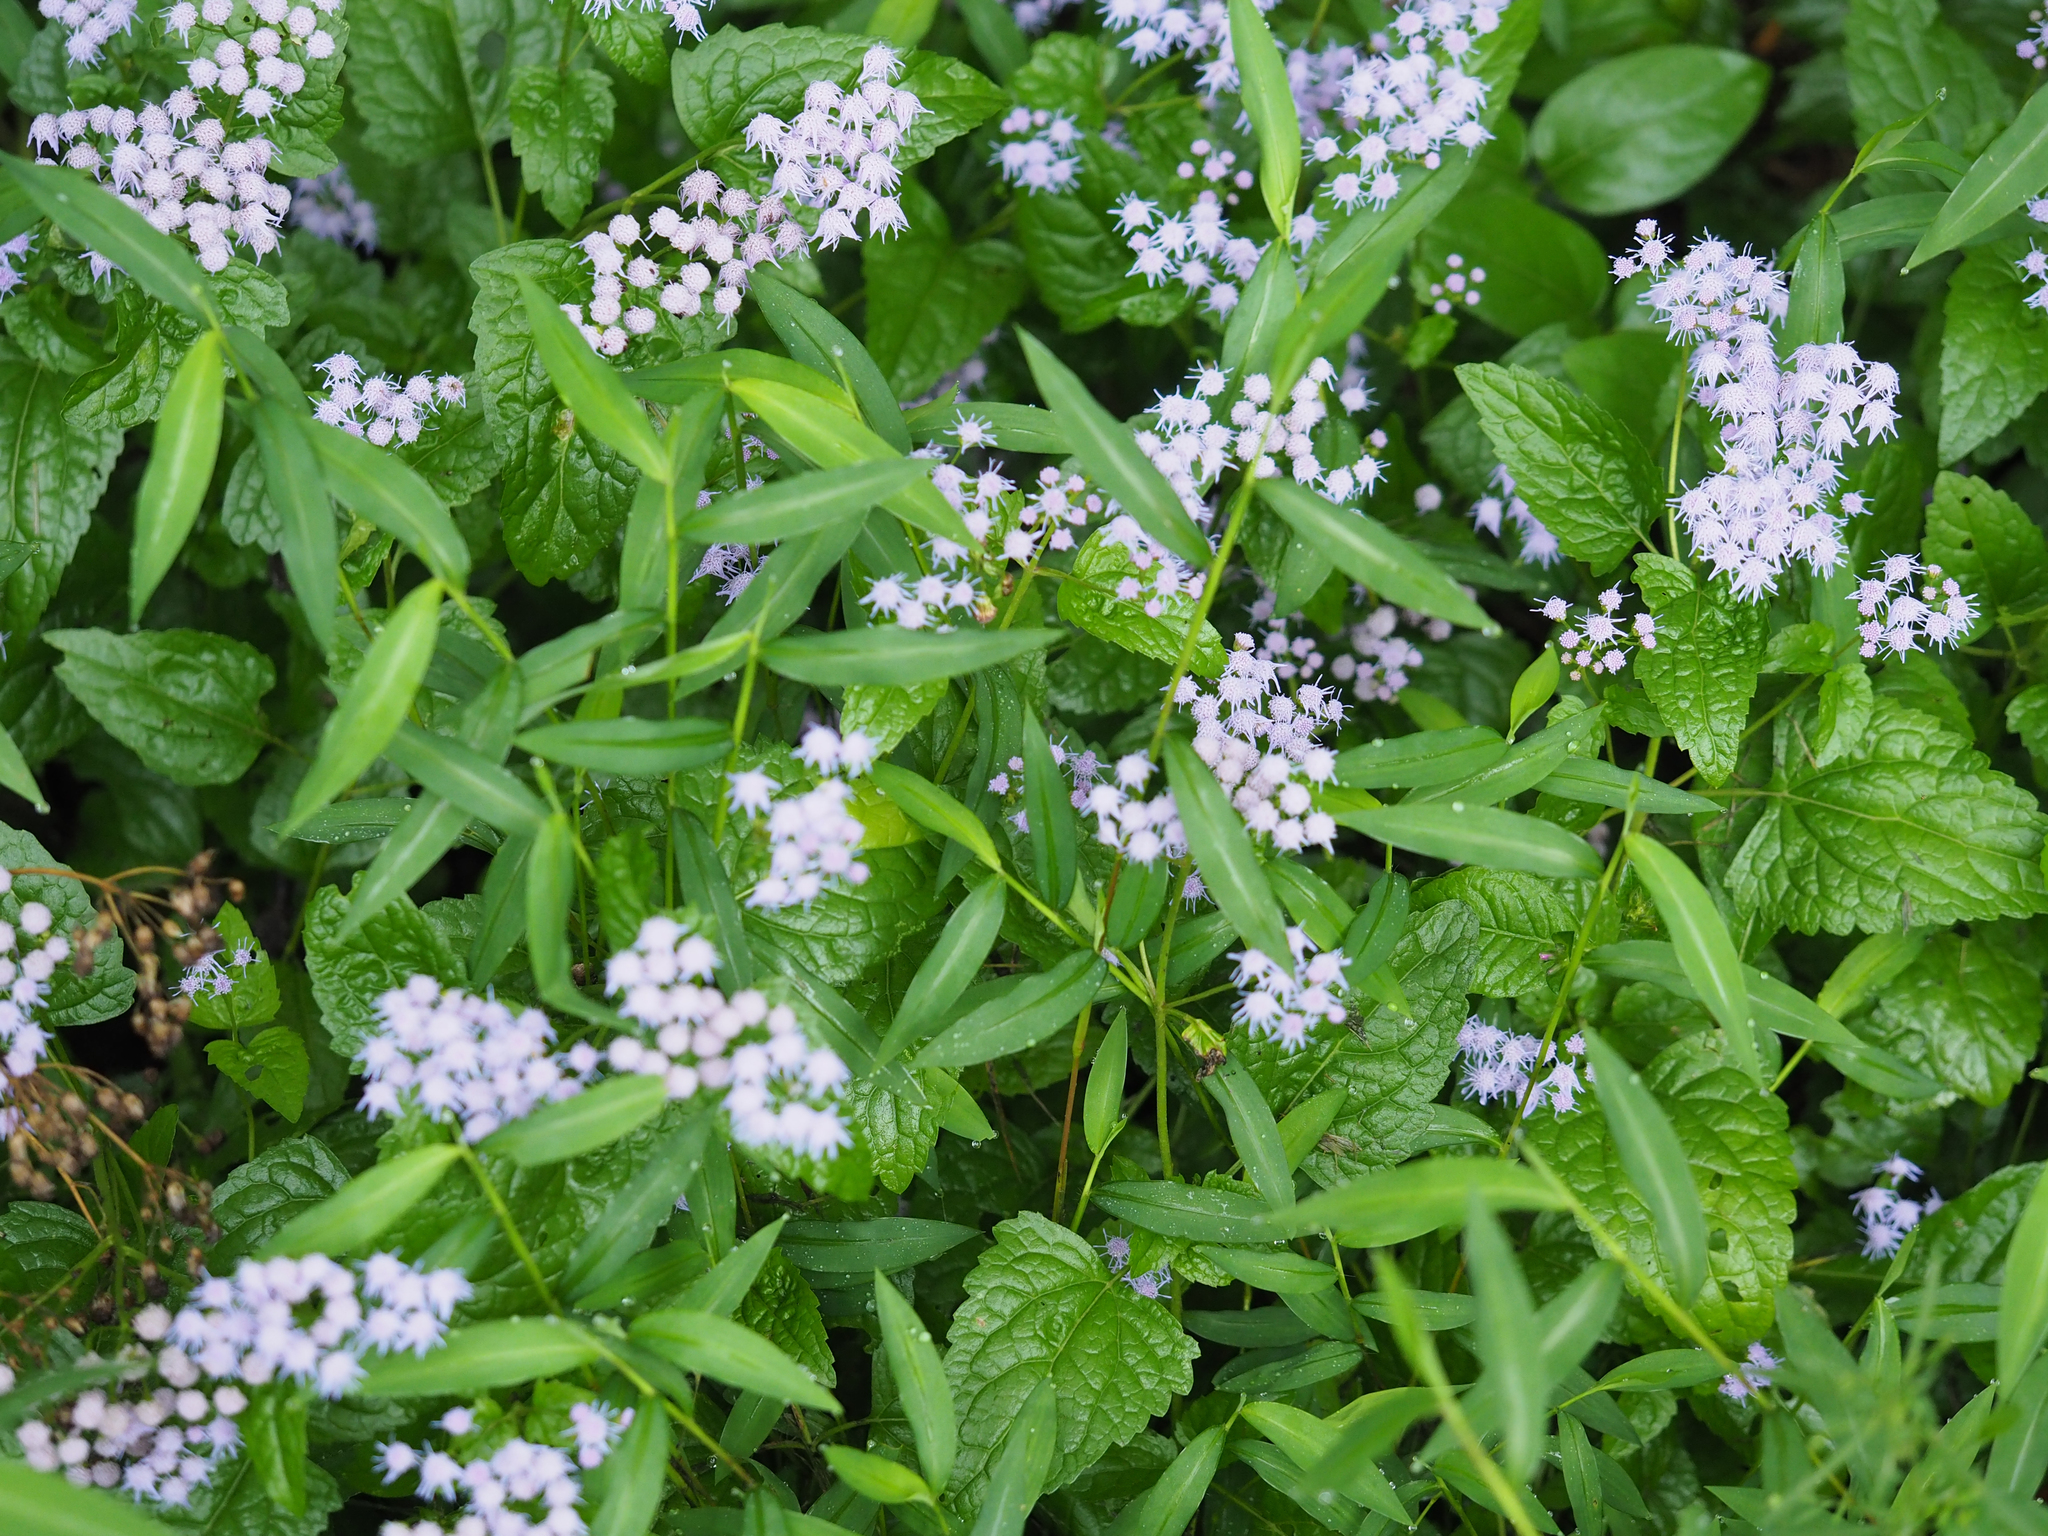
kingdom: Plantae
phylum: Tracheophyta
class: Magnoliopsida
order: Asterales
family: Asteraceae
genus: Conoclinium
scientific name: Conoclinium coelestinum
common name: Blue mistflower
